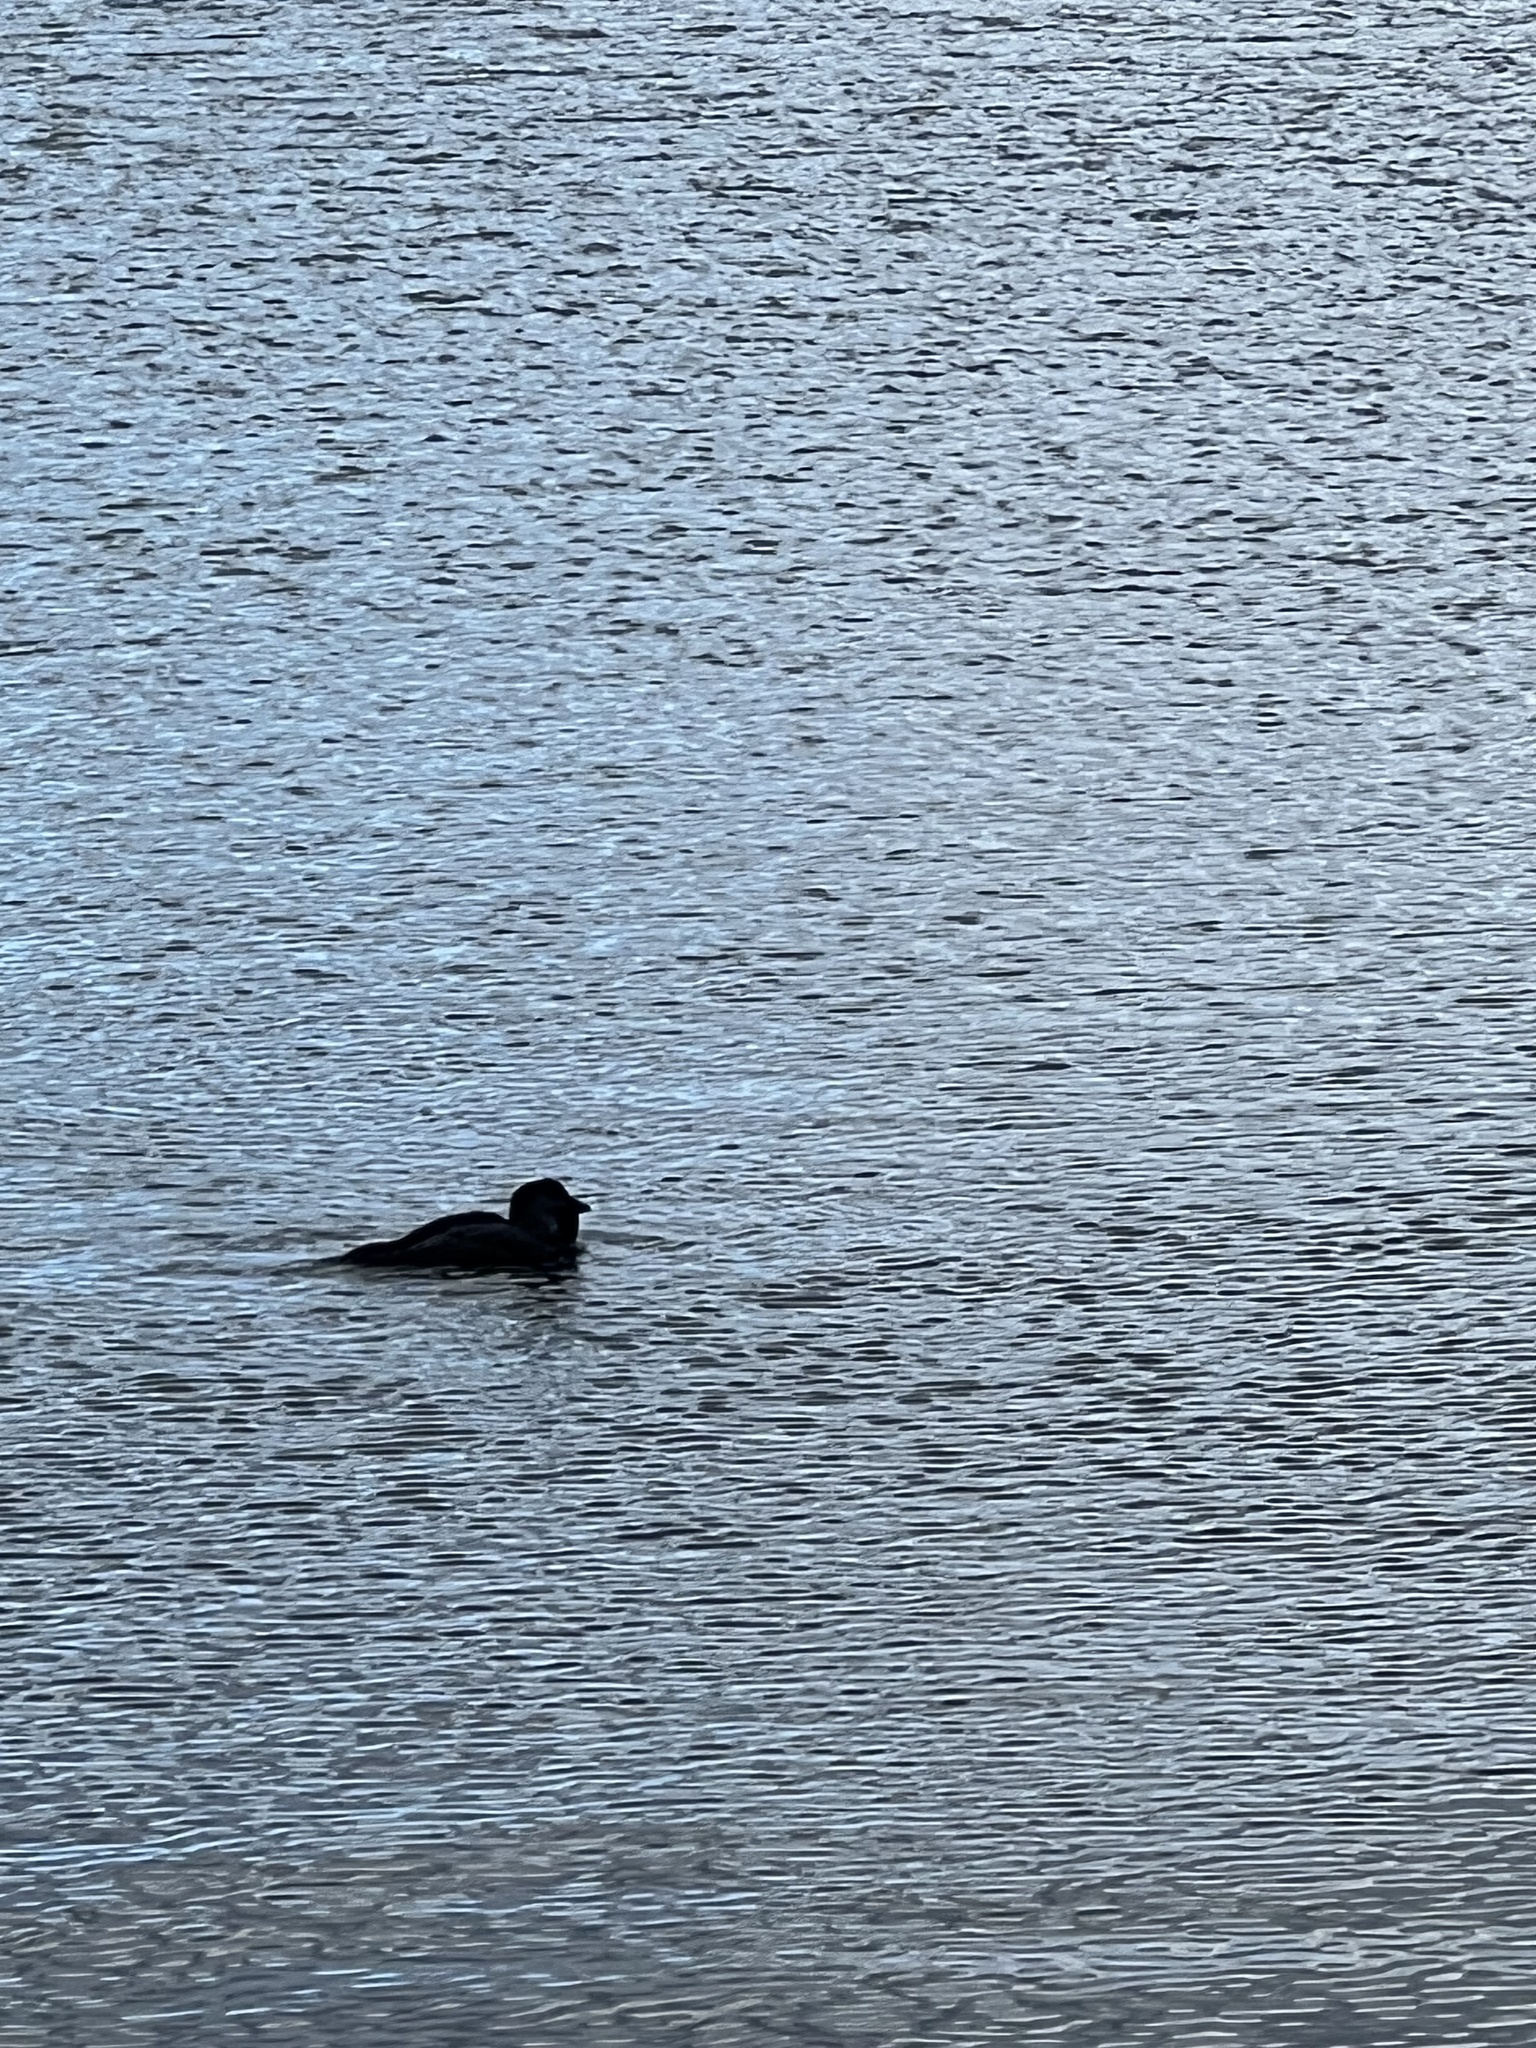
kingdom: Animalia
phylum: Chordata
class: Aves
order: Anseriformes
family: Anatidae
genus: Biziura
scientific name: Biziura lobata
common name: Musk duck
